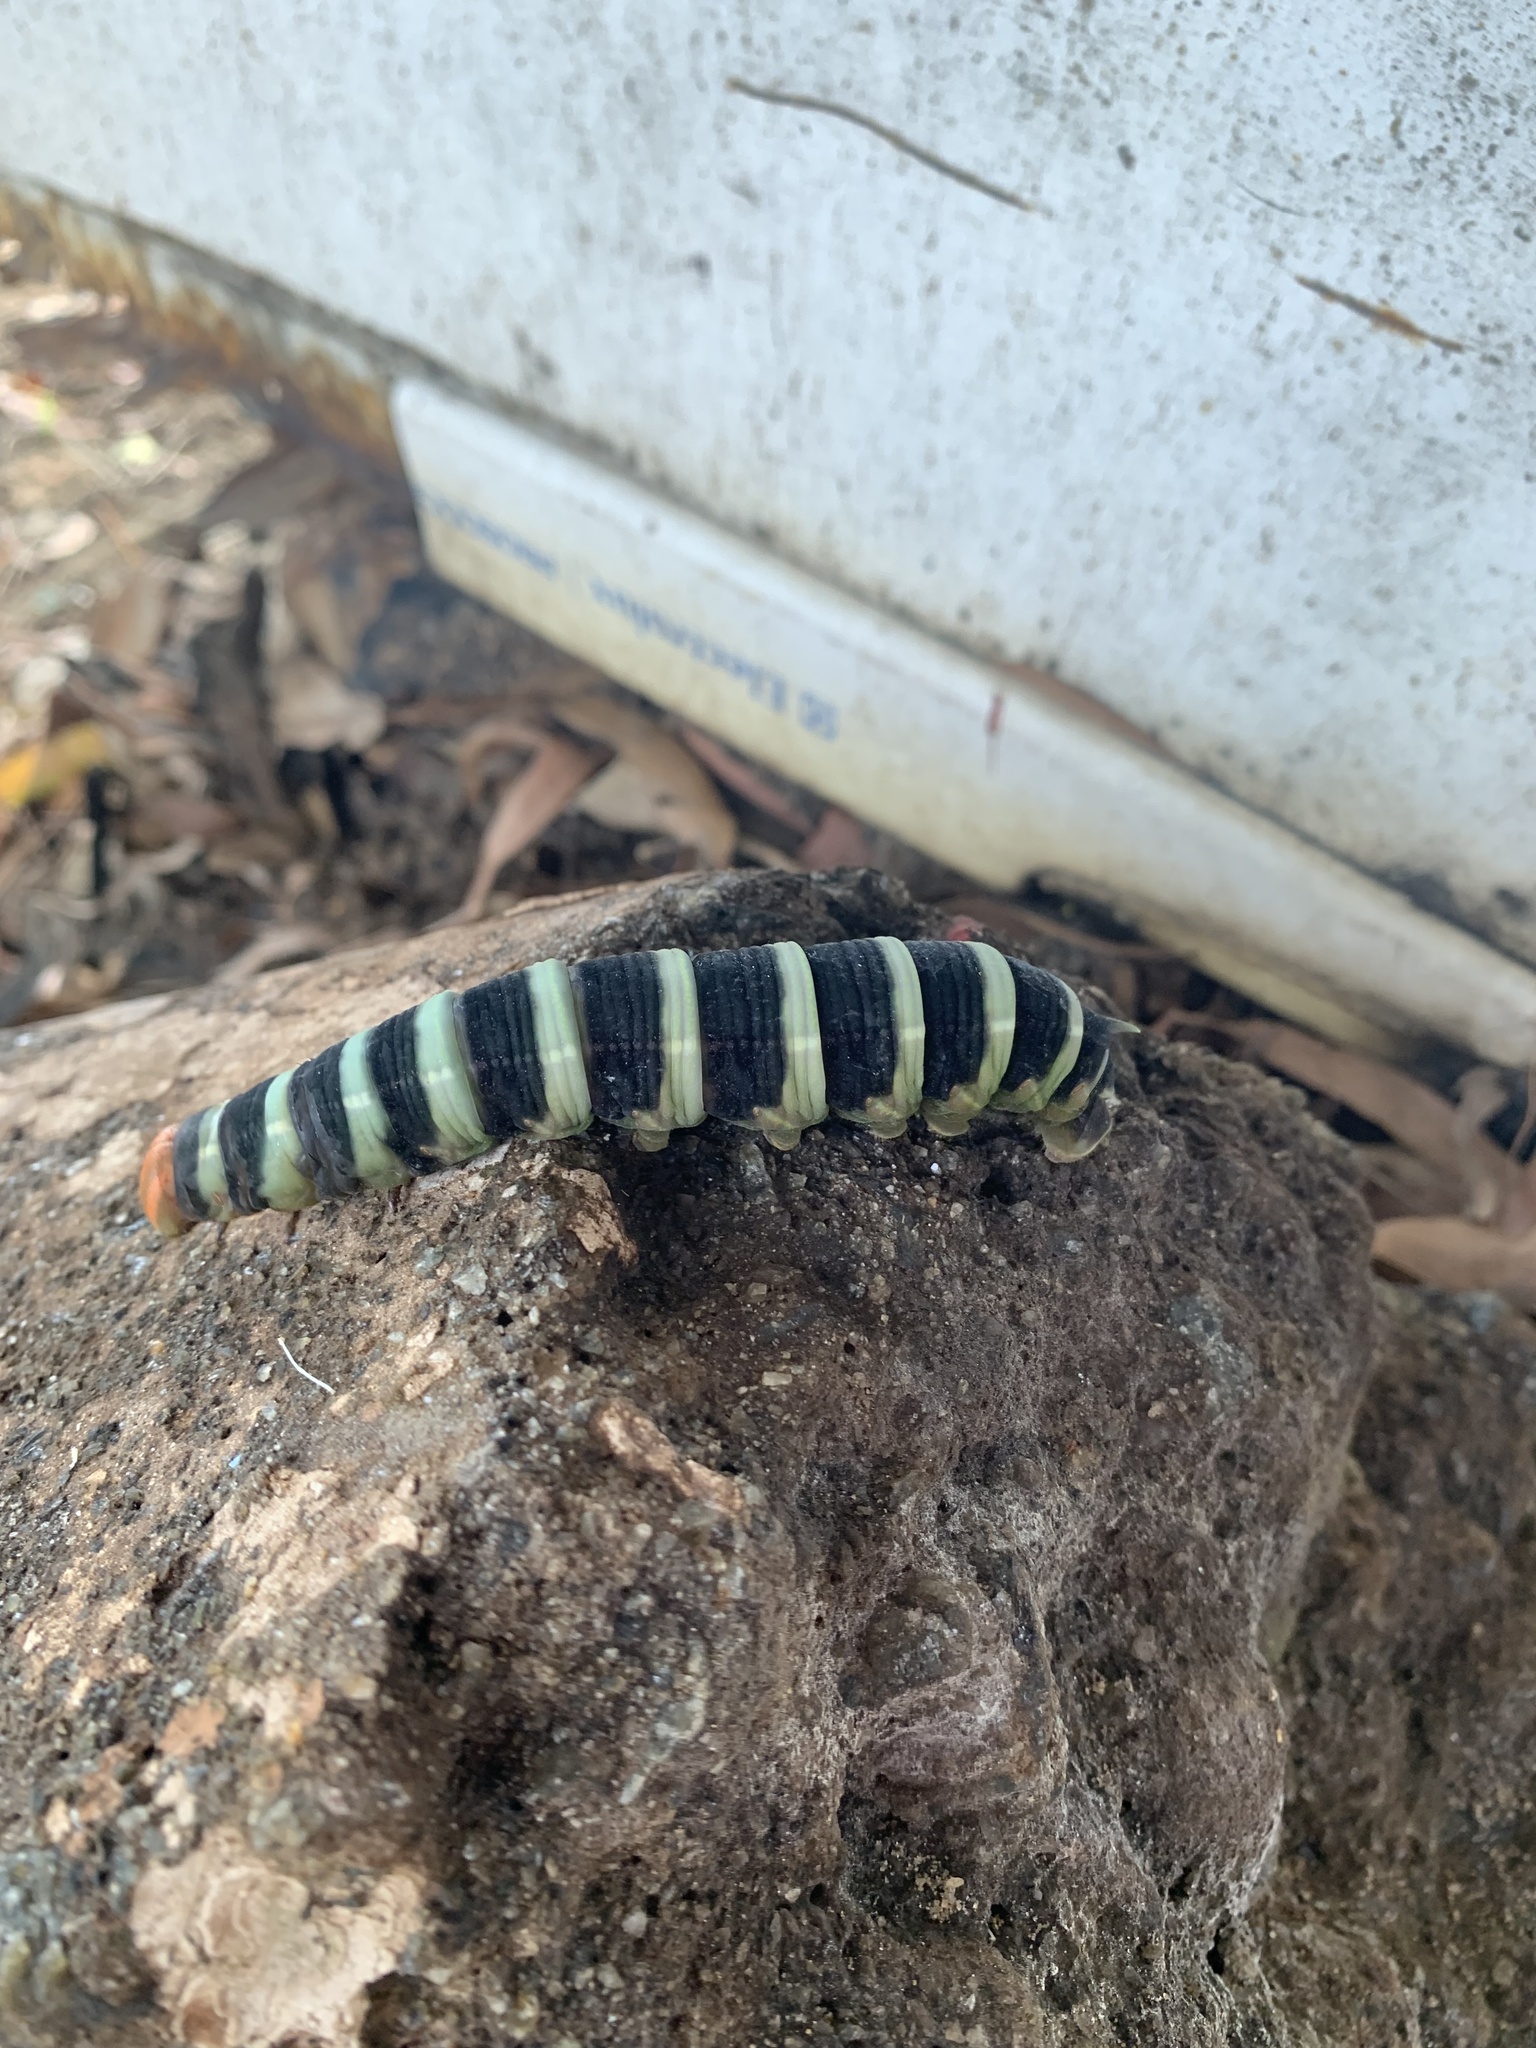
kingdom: Animalia
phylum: Arthropoda
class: Insecta
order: Lepidoptera
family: Sphingidae
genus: Pachylia
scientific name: Pachylia syces
